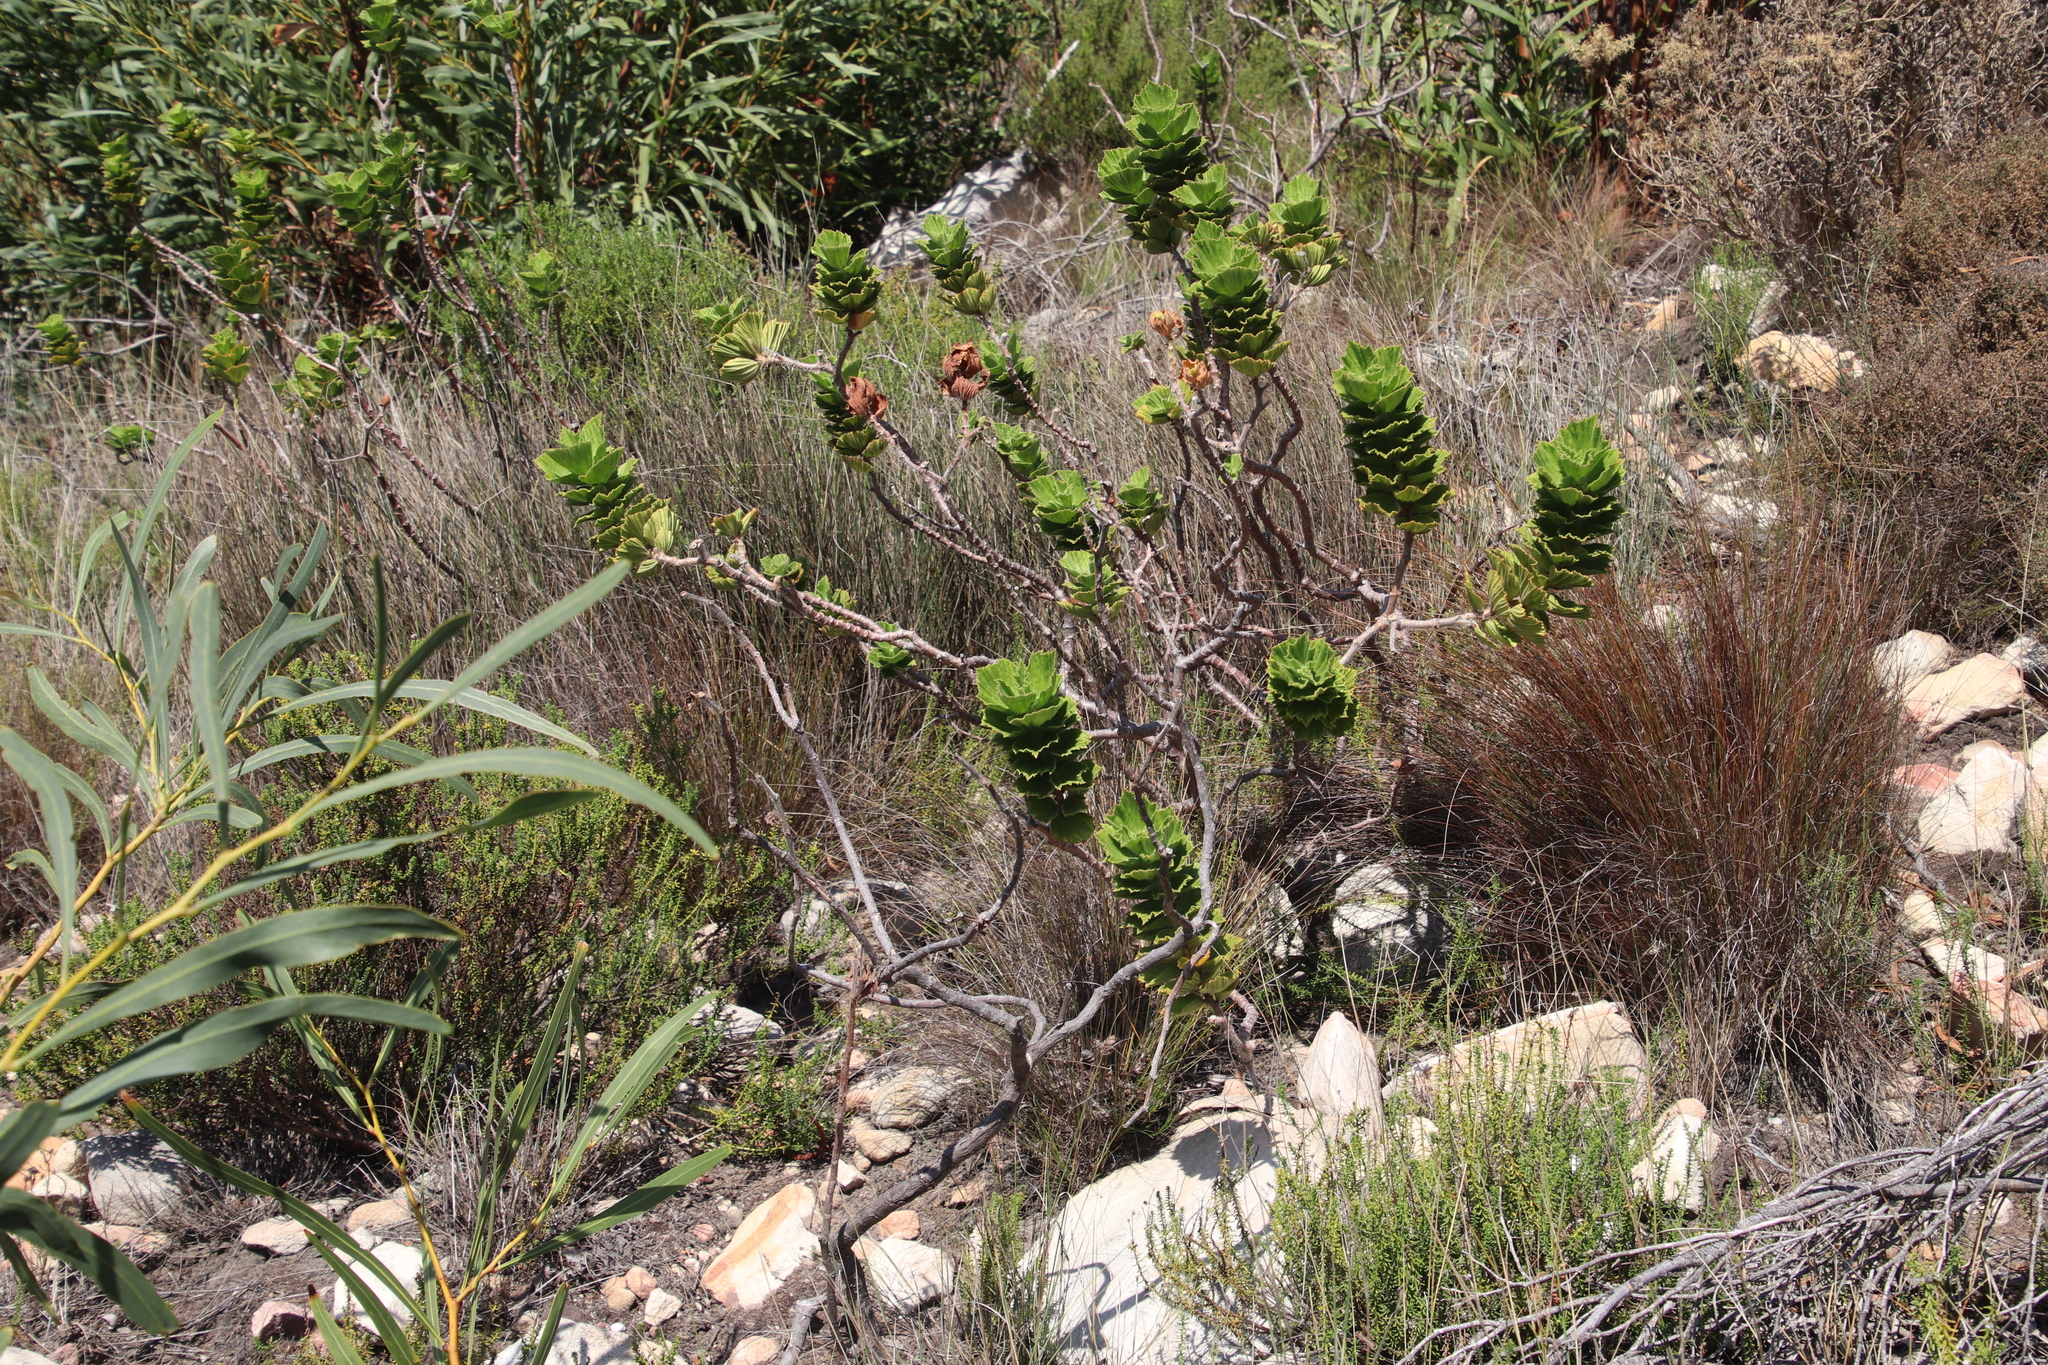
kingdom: Plantae
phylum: Tracheophyta
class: Magnoliopsida
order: Geraniales
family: Geraniaceae
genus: Pelargonium
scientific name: Pelargonium cucullatum
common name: Tree pelargonium
